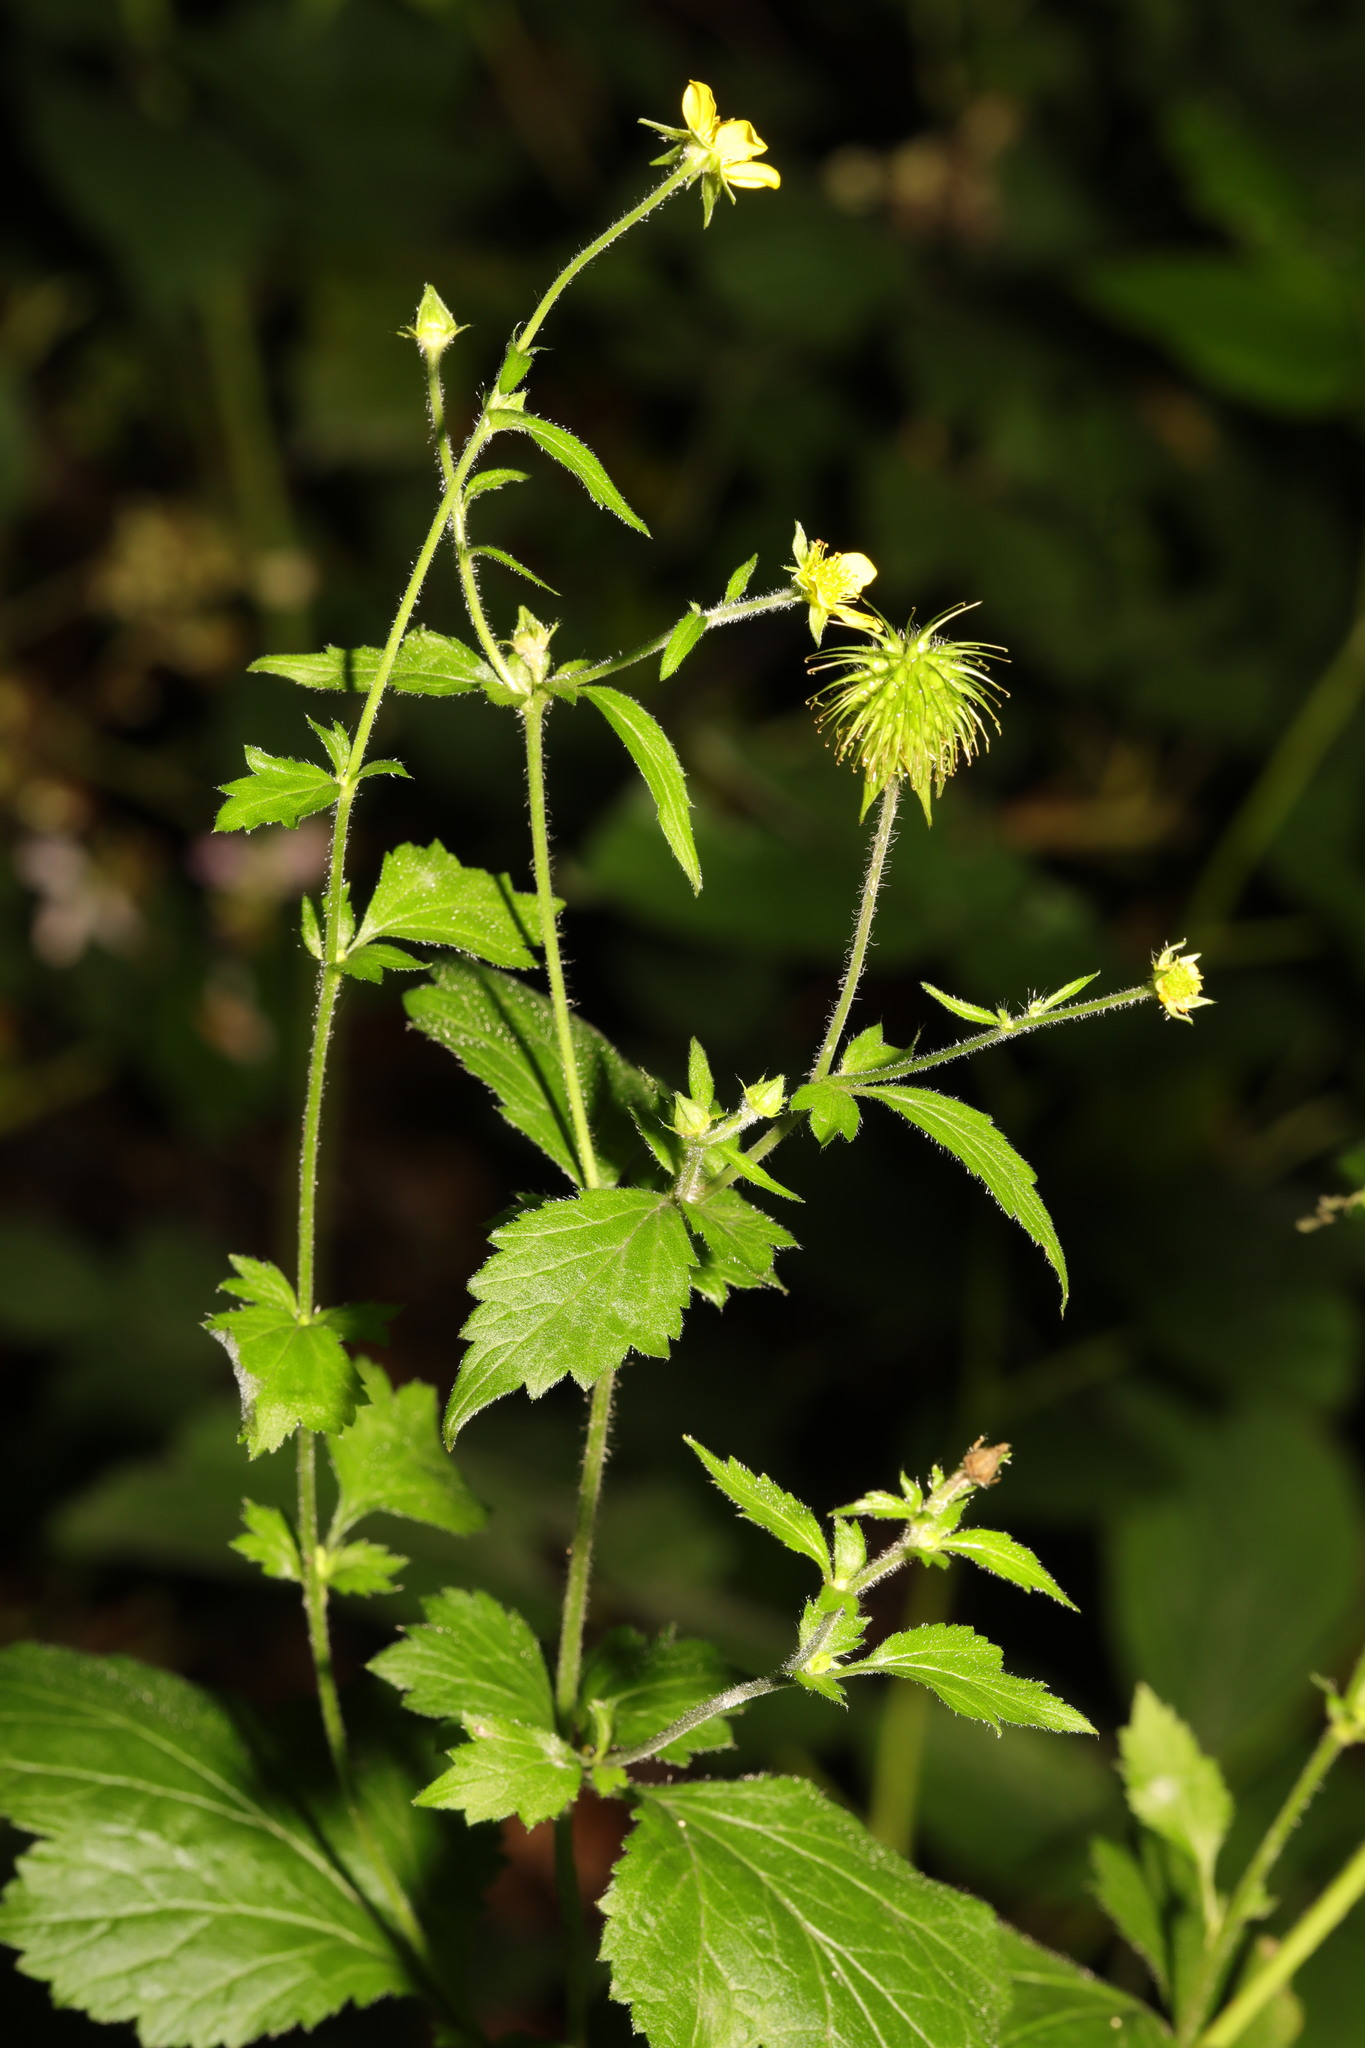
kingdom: Plantae
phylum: Tracheophyta
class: Magnoliopsida
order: Rosales
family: Rosaceae
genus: Geum
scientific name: Geum urbanum
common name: Wood avens
